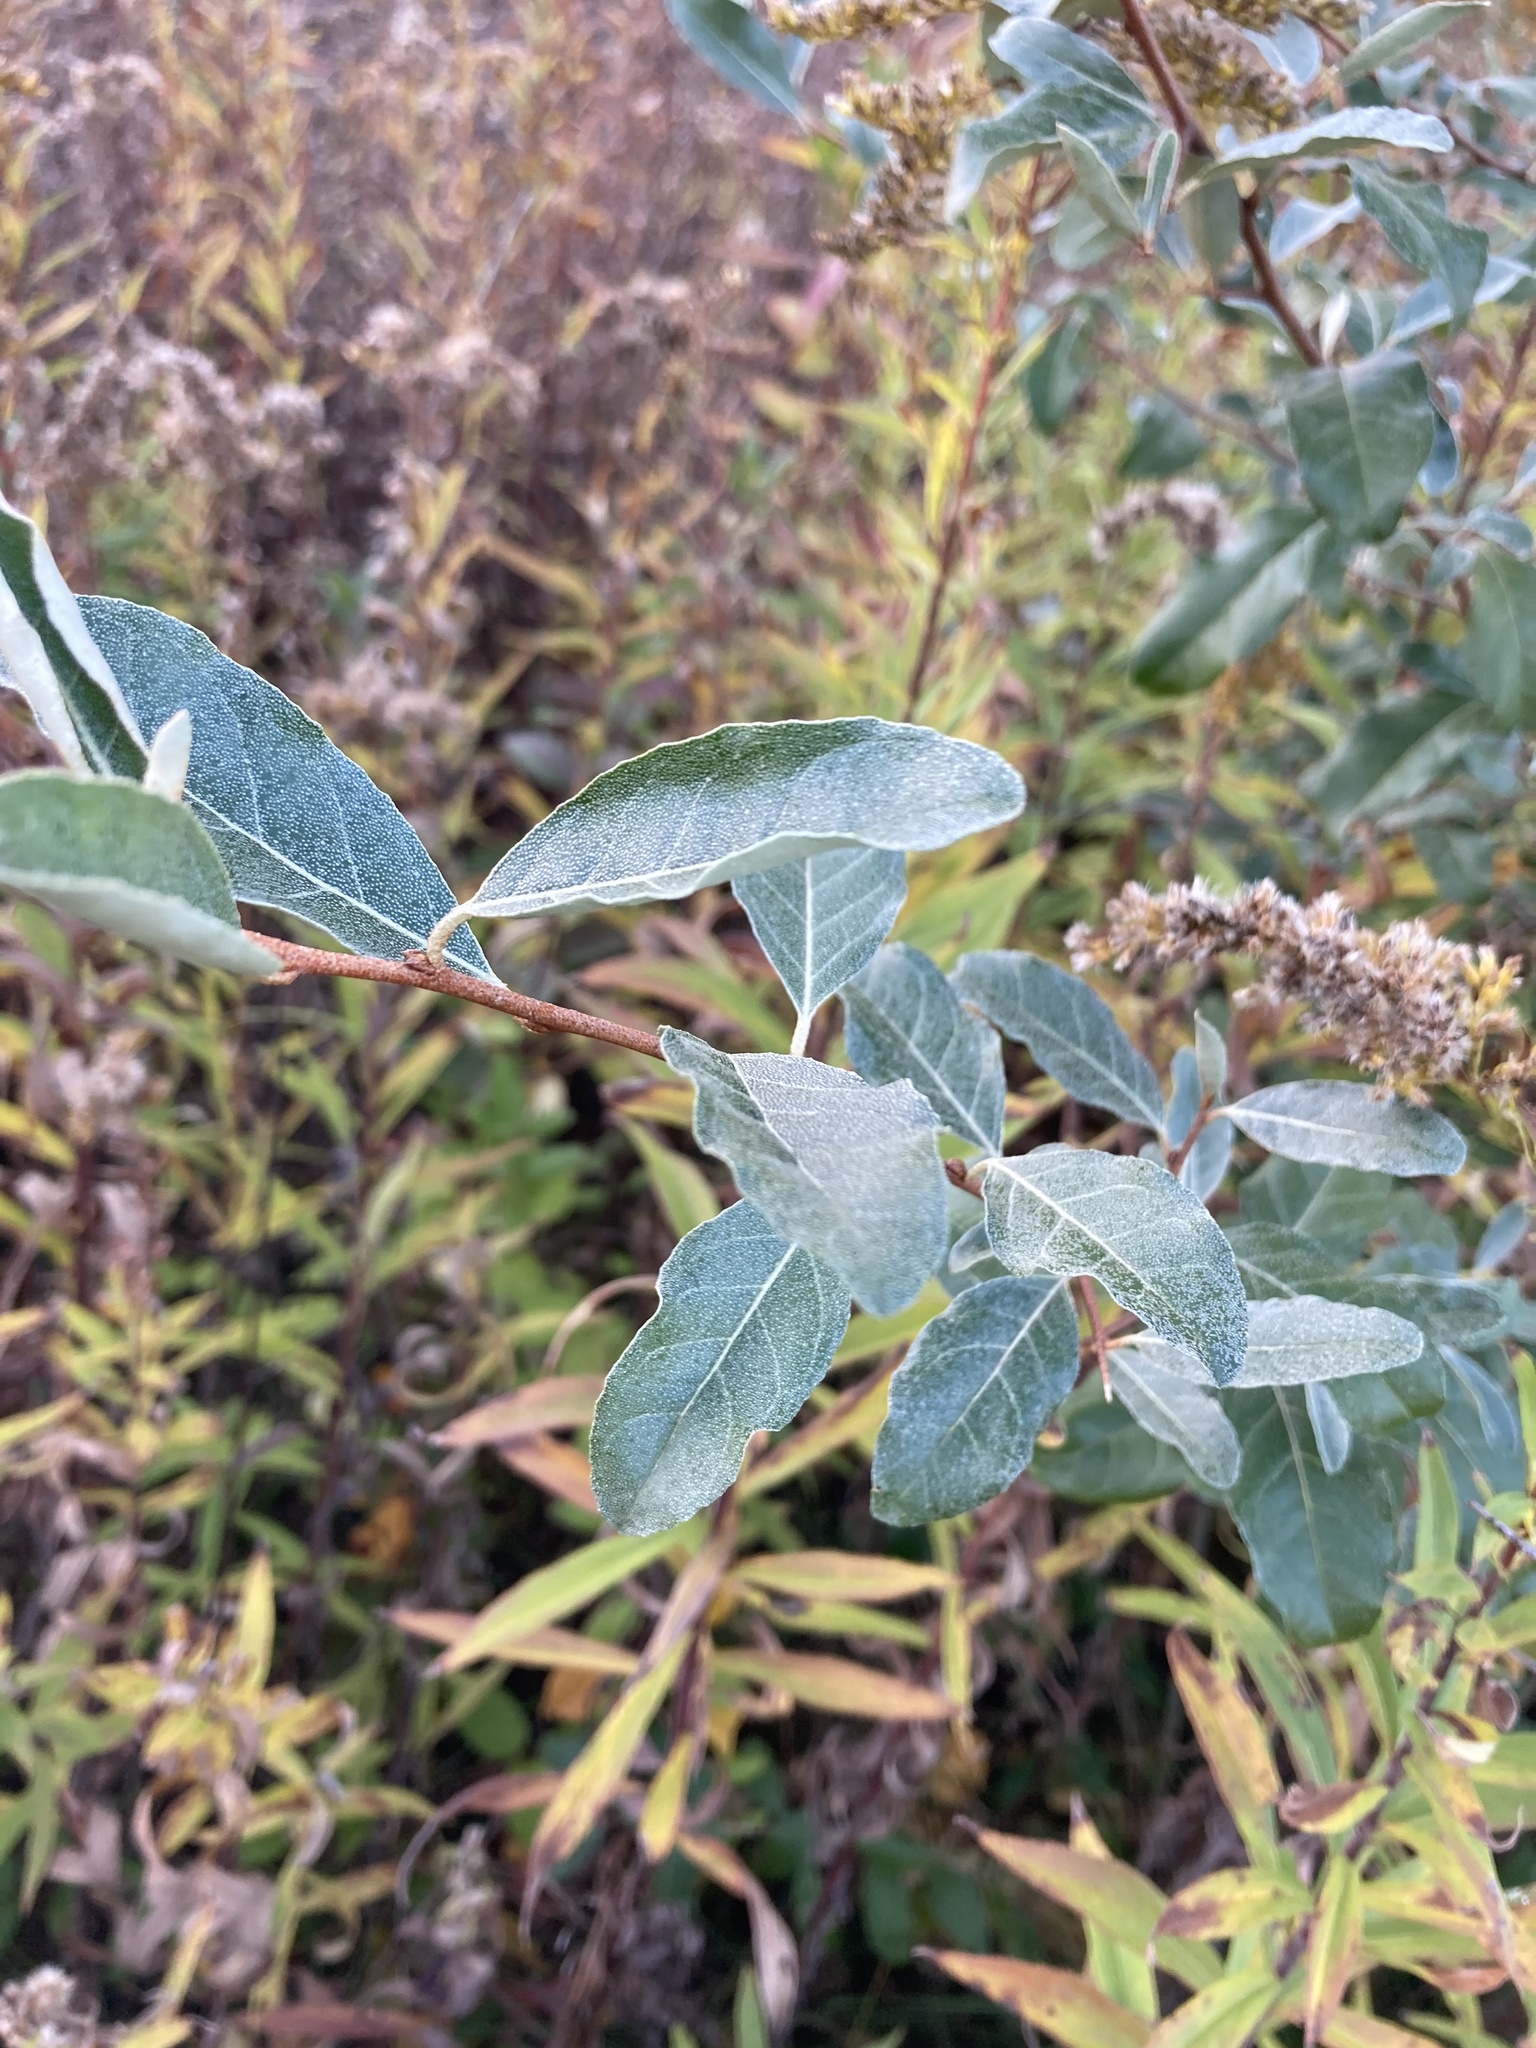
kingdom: Plantae
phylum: Tracheophyta
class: Magnoliopsida
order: Rosales
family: Elaeagnaceae
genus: Elaeagnus
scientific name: Elaeagnus umbellata
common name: Autumn olive
